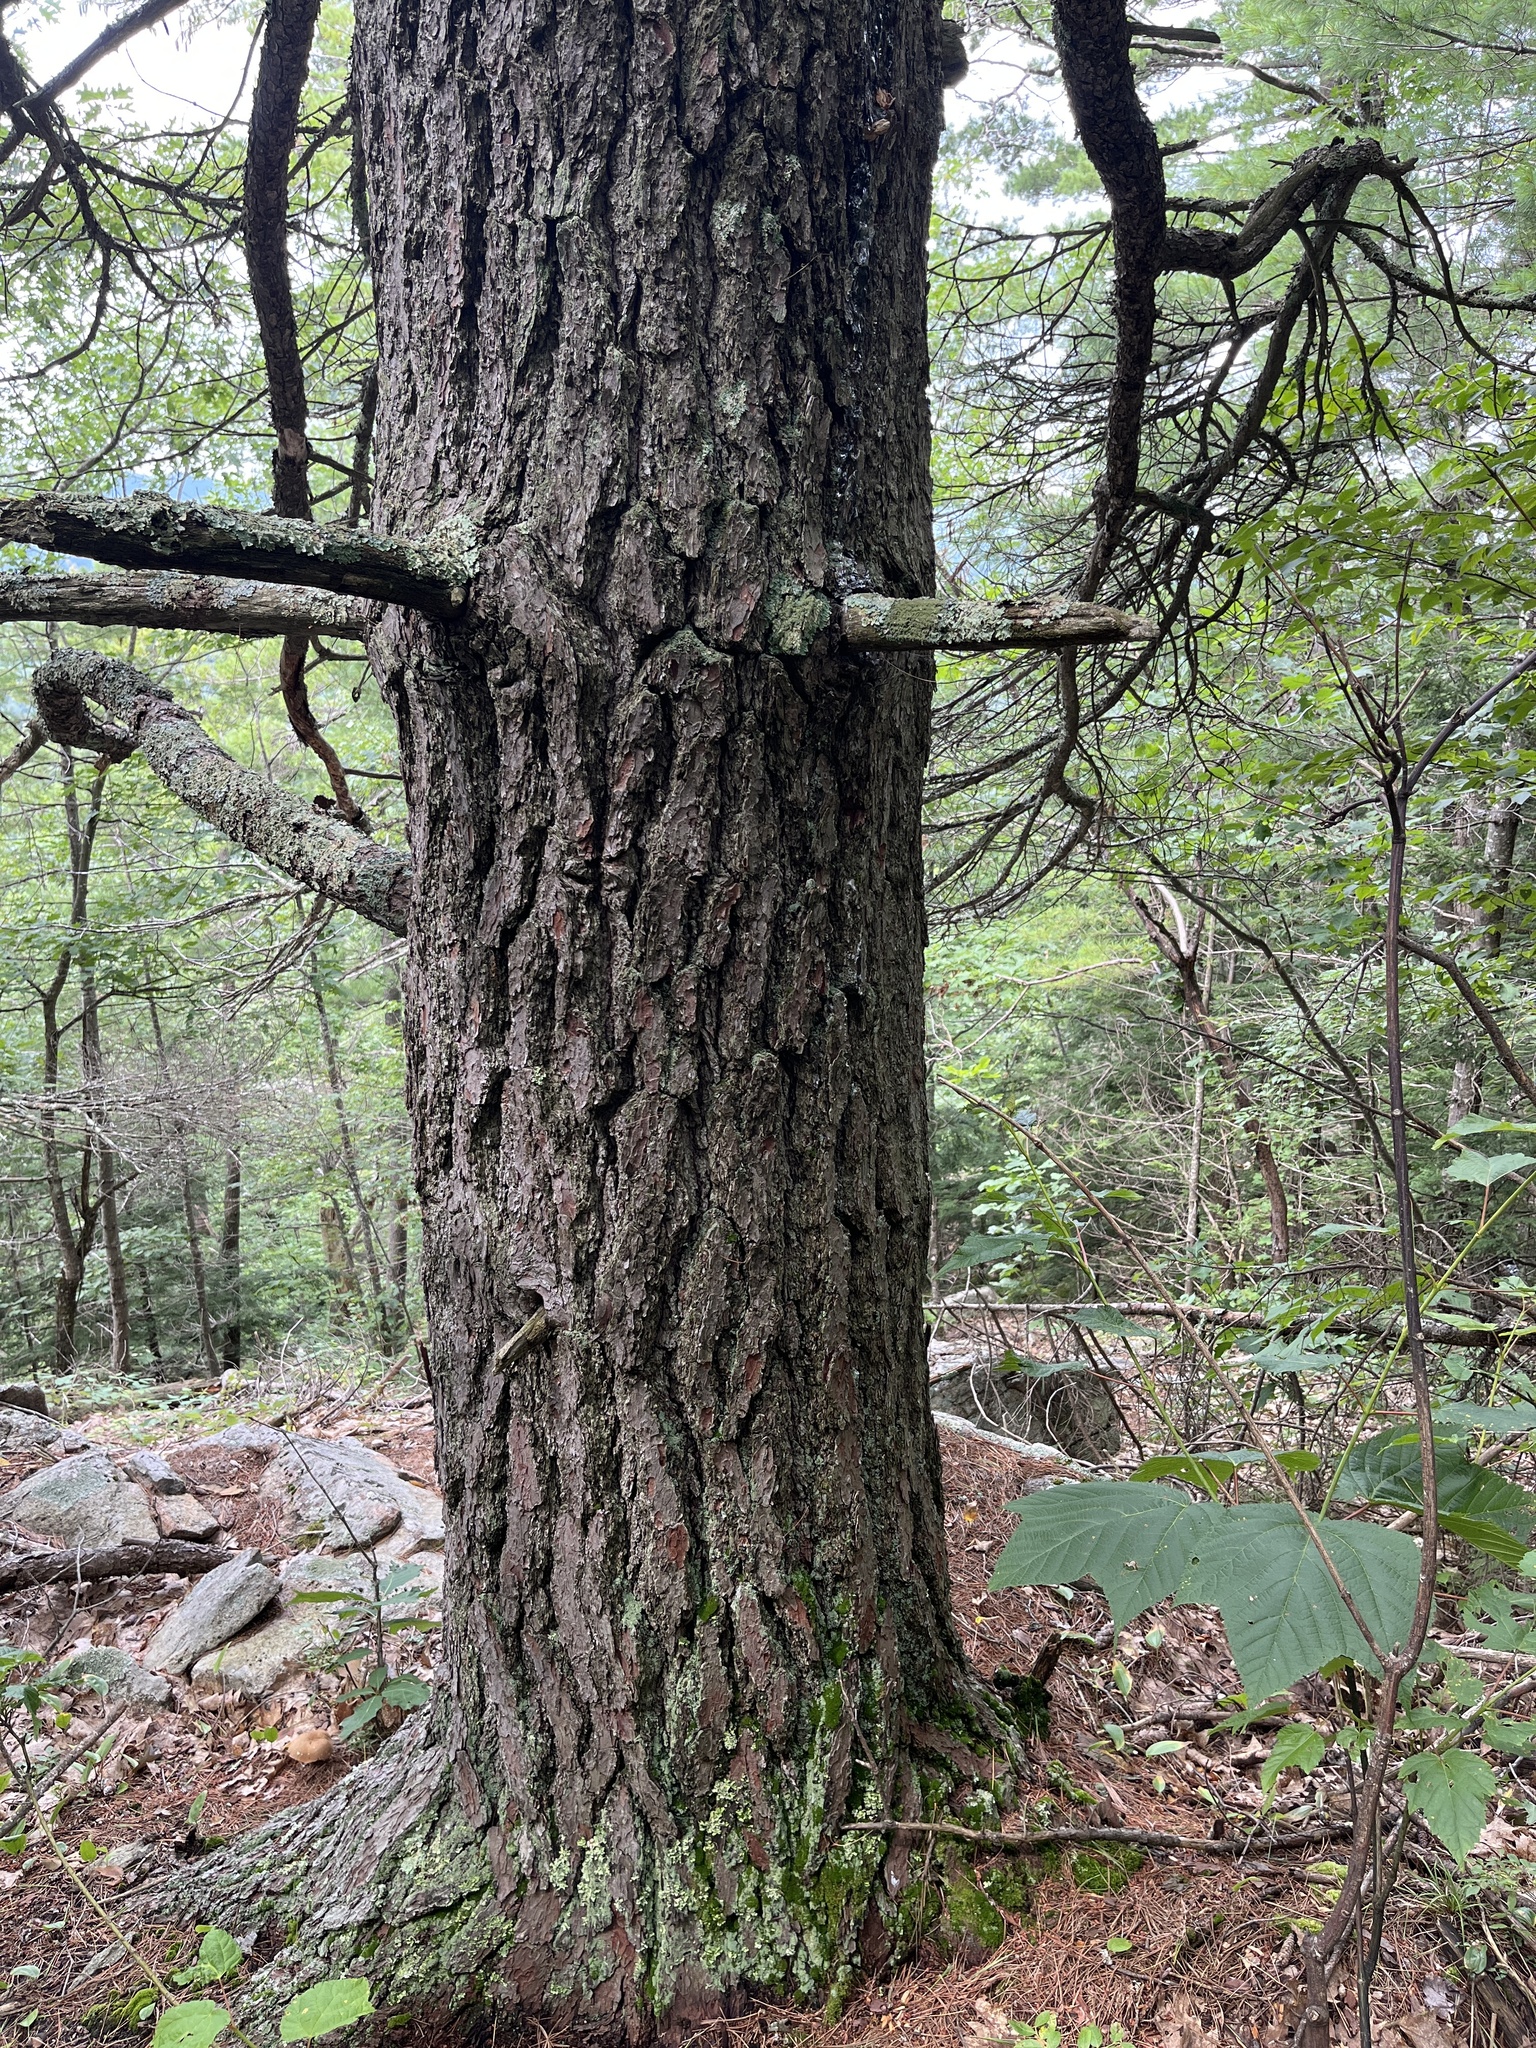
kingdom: Plantae
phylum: Tracheophyta
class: Pinopsida
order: Pinales
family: Pinaceae
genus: Pinus
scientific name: Pinus strobus
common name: Weymouth pine
